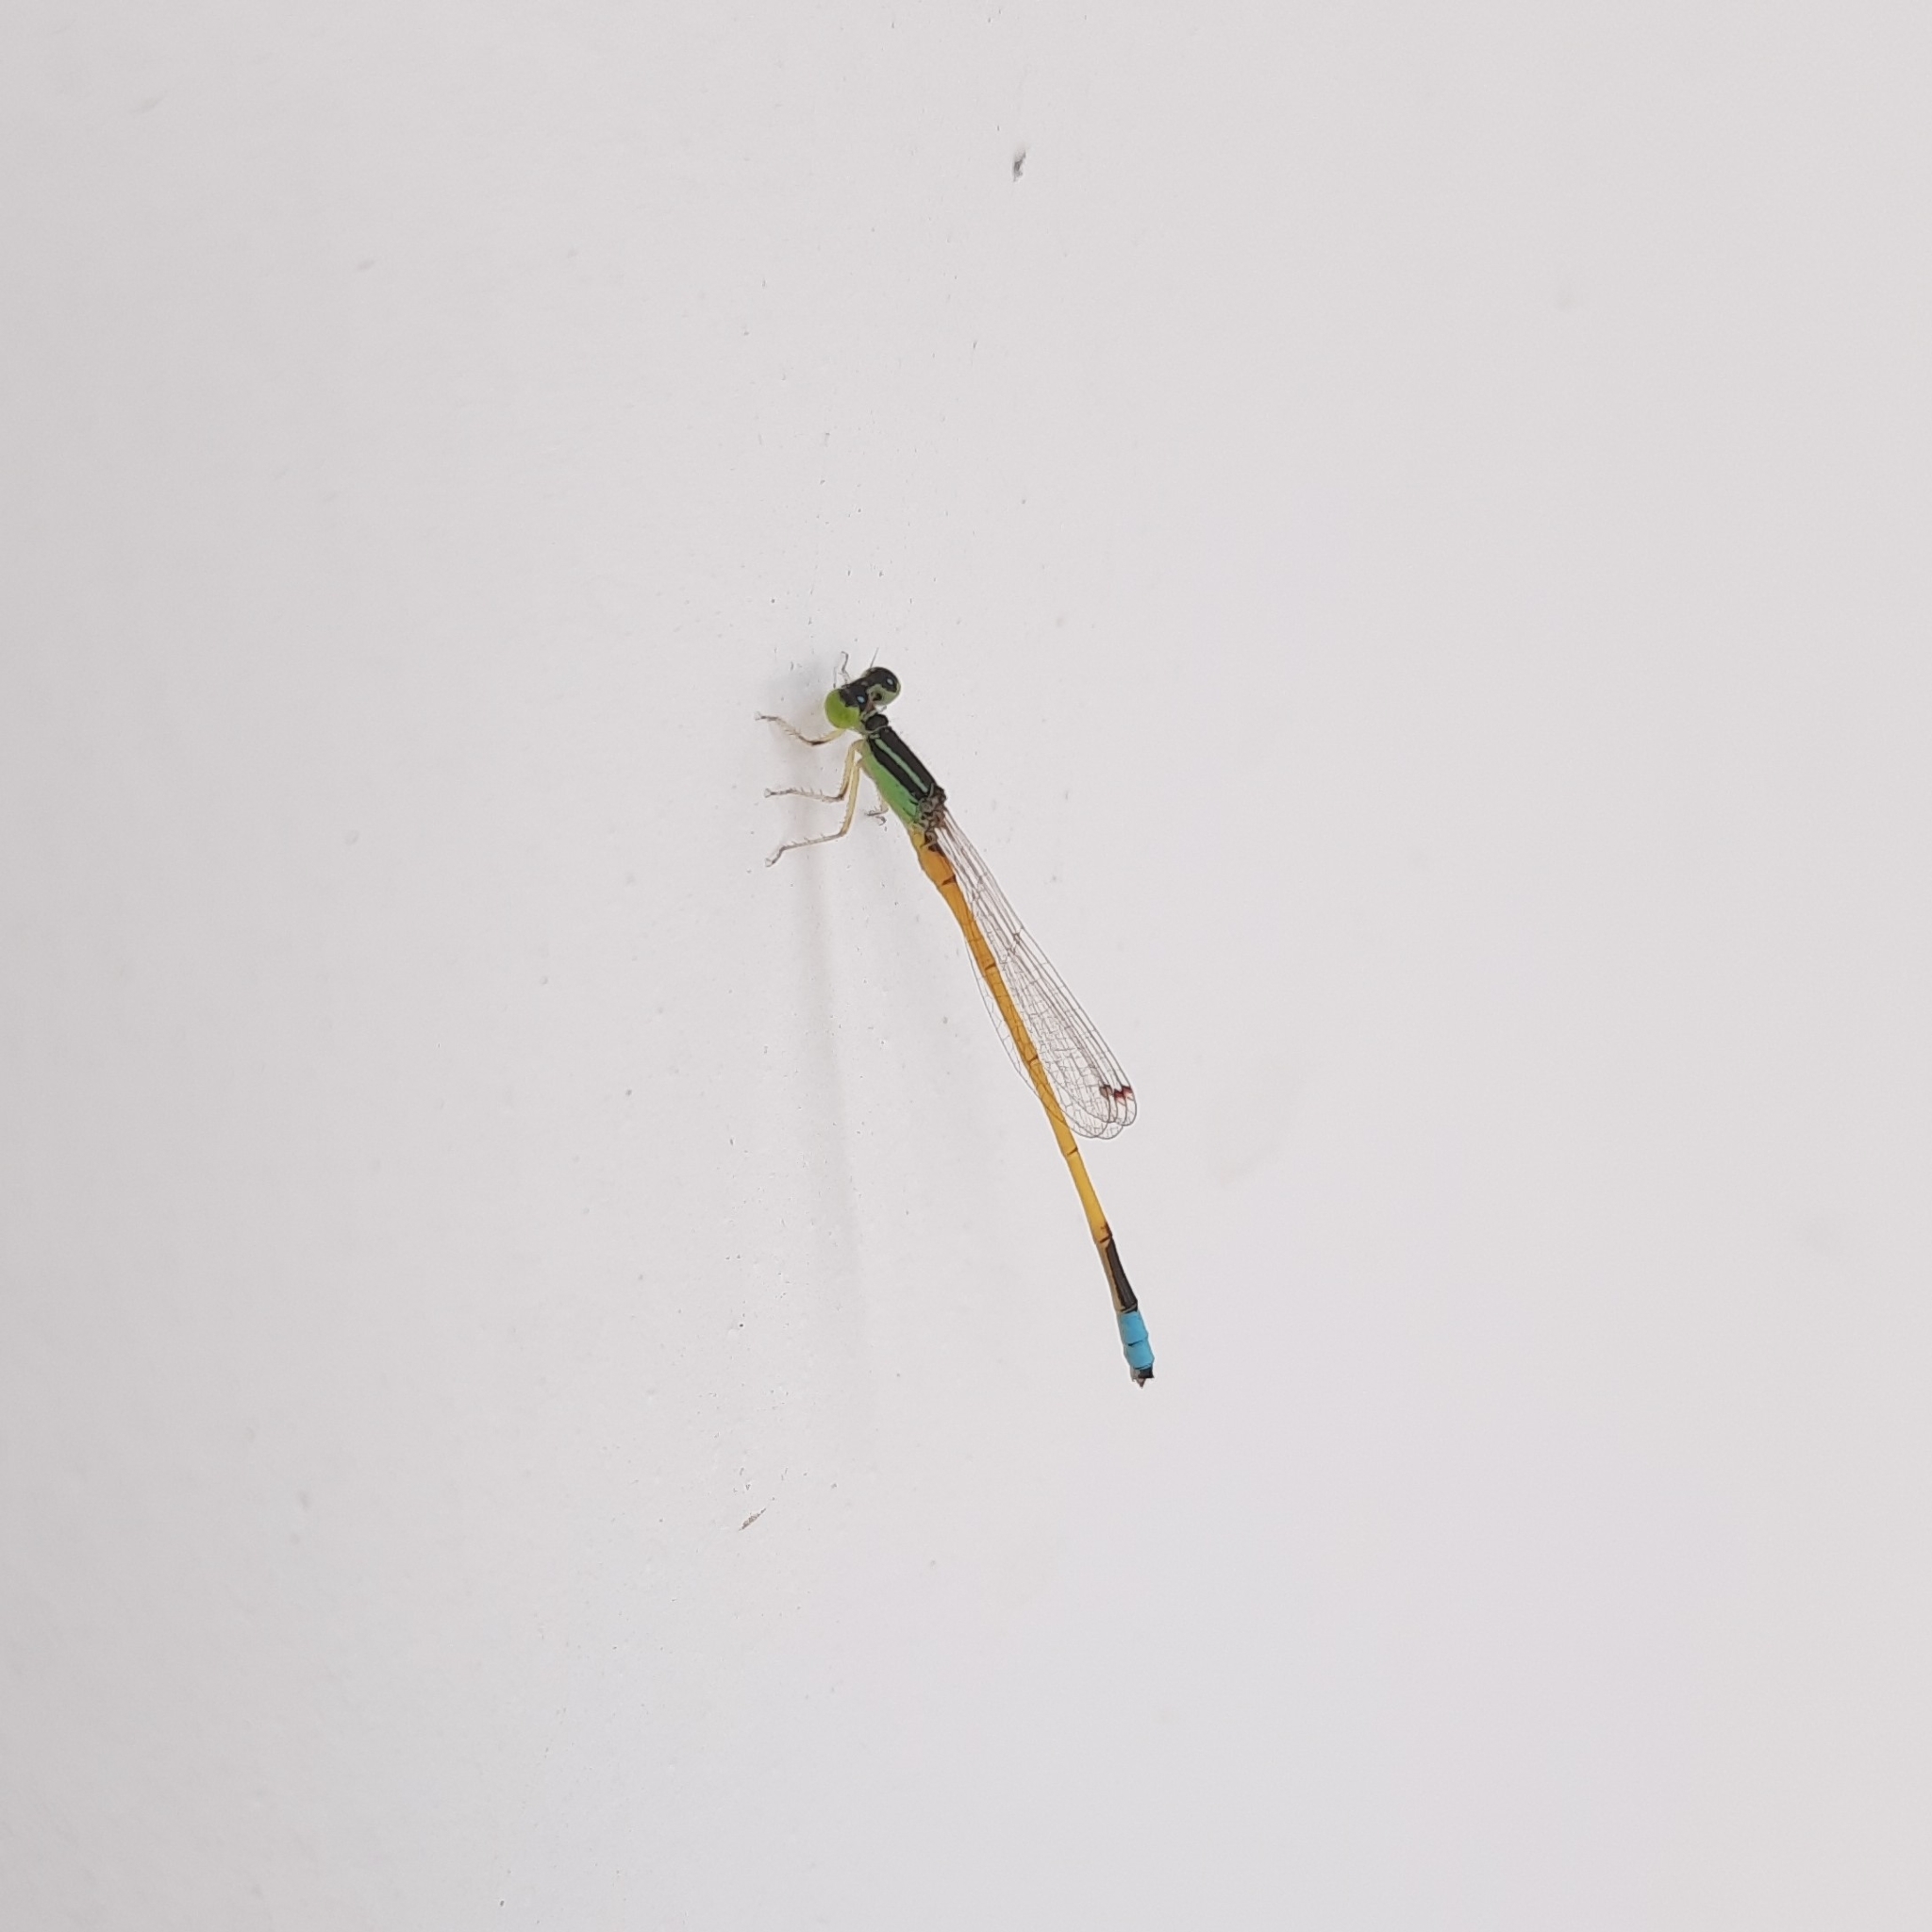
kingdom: Animalia
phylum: Arthropoda
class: Insecta
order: Odonata
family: Coenagrionidae
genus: Ischnura
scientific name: Ischnura rubilio
